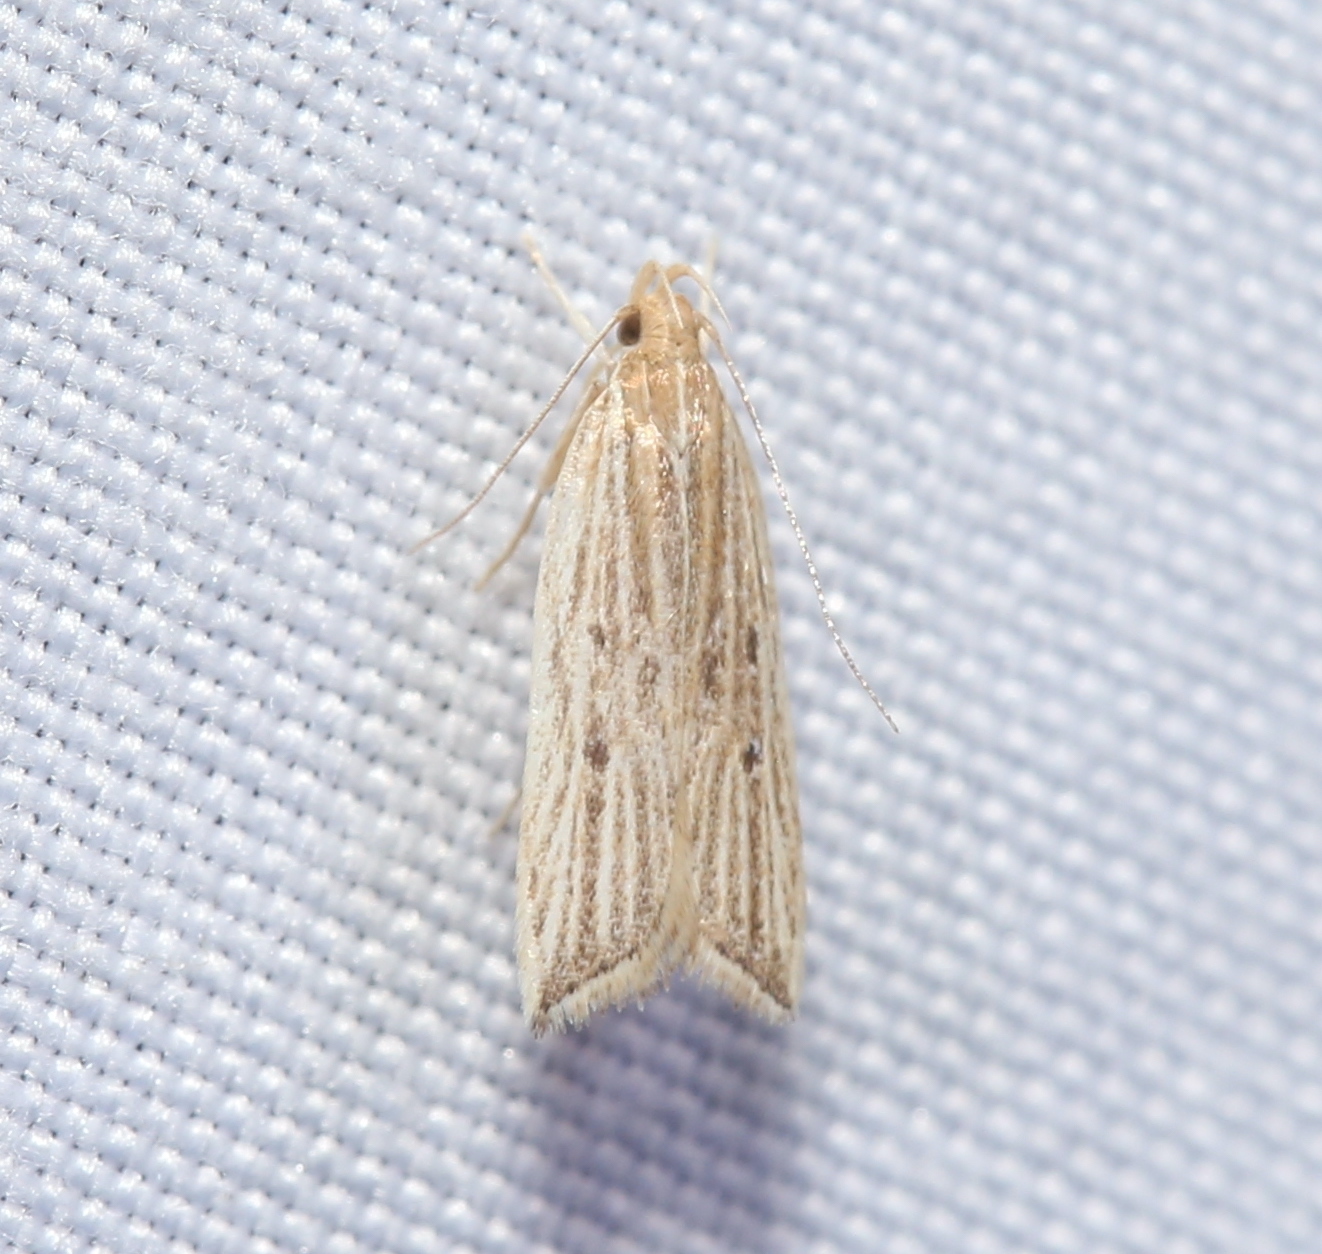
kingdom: Animalia
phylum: Arthropoda
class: Insecta
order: Lepidoptera
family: Gelechiidae
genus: Helcystogramma
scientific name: Helcystogramma hystricella
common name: Lanceolate moth
